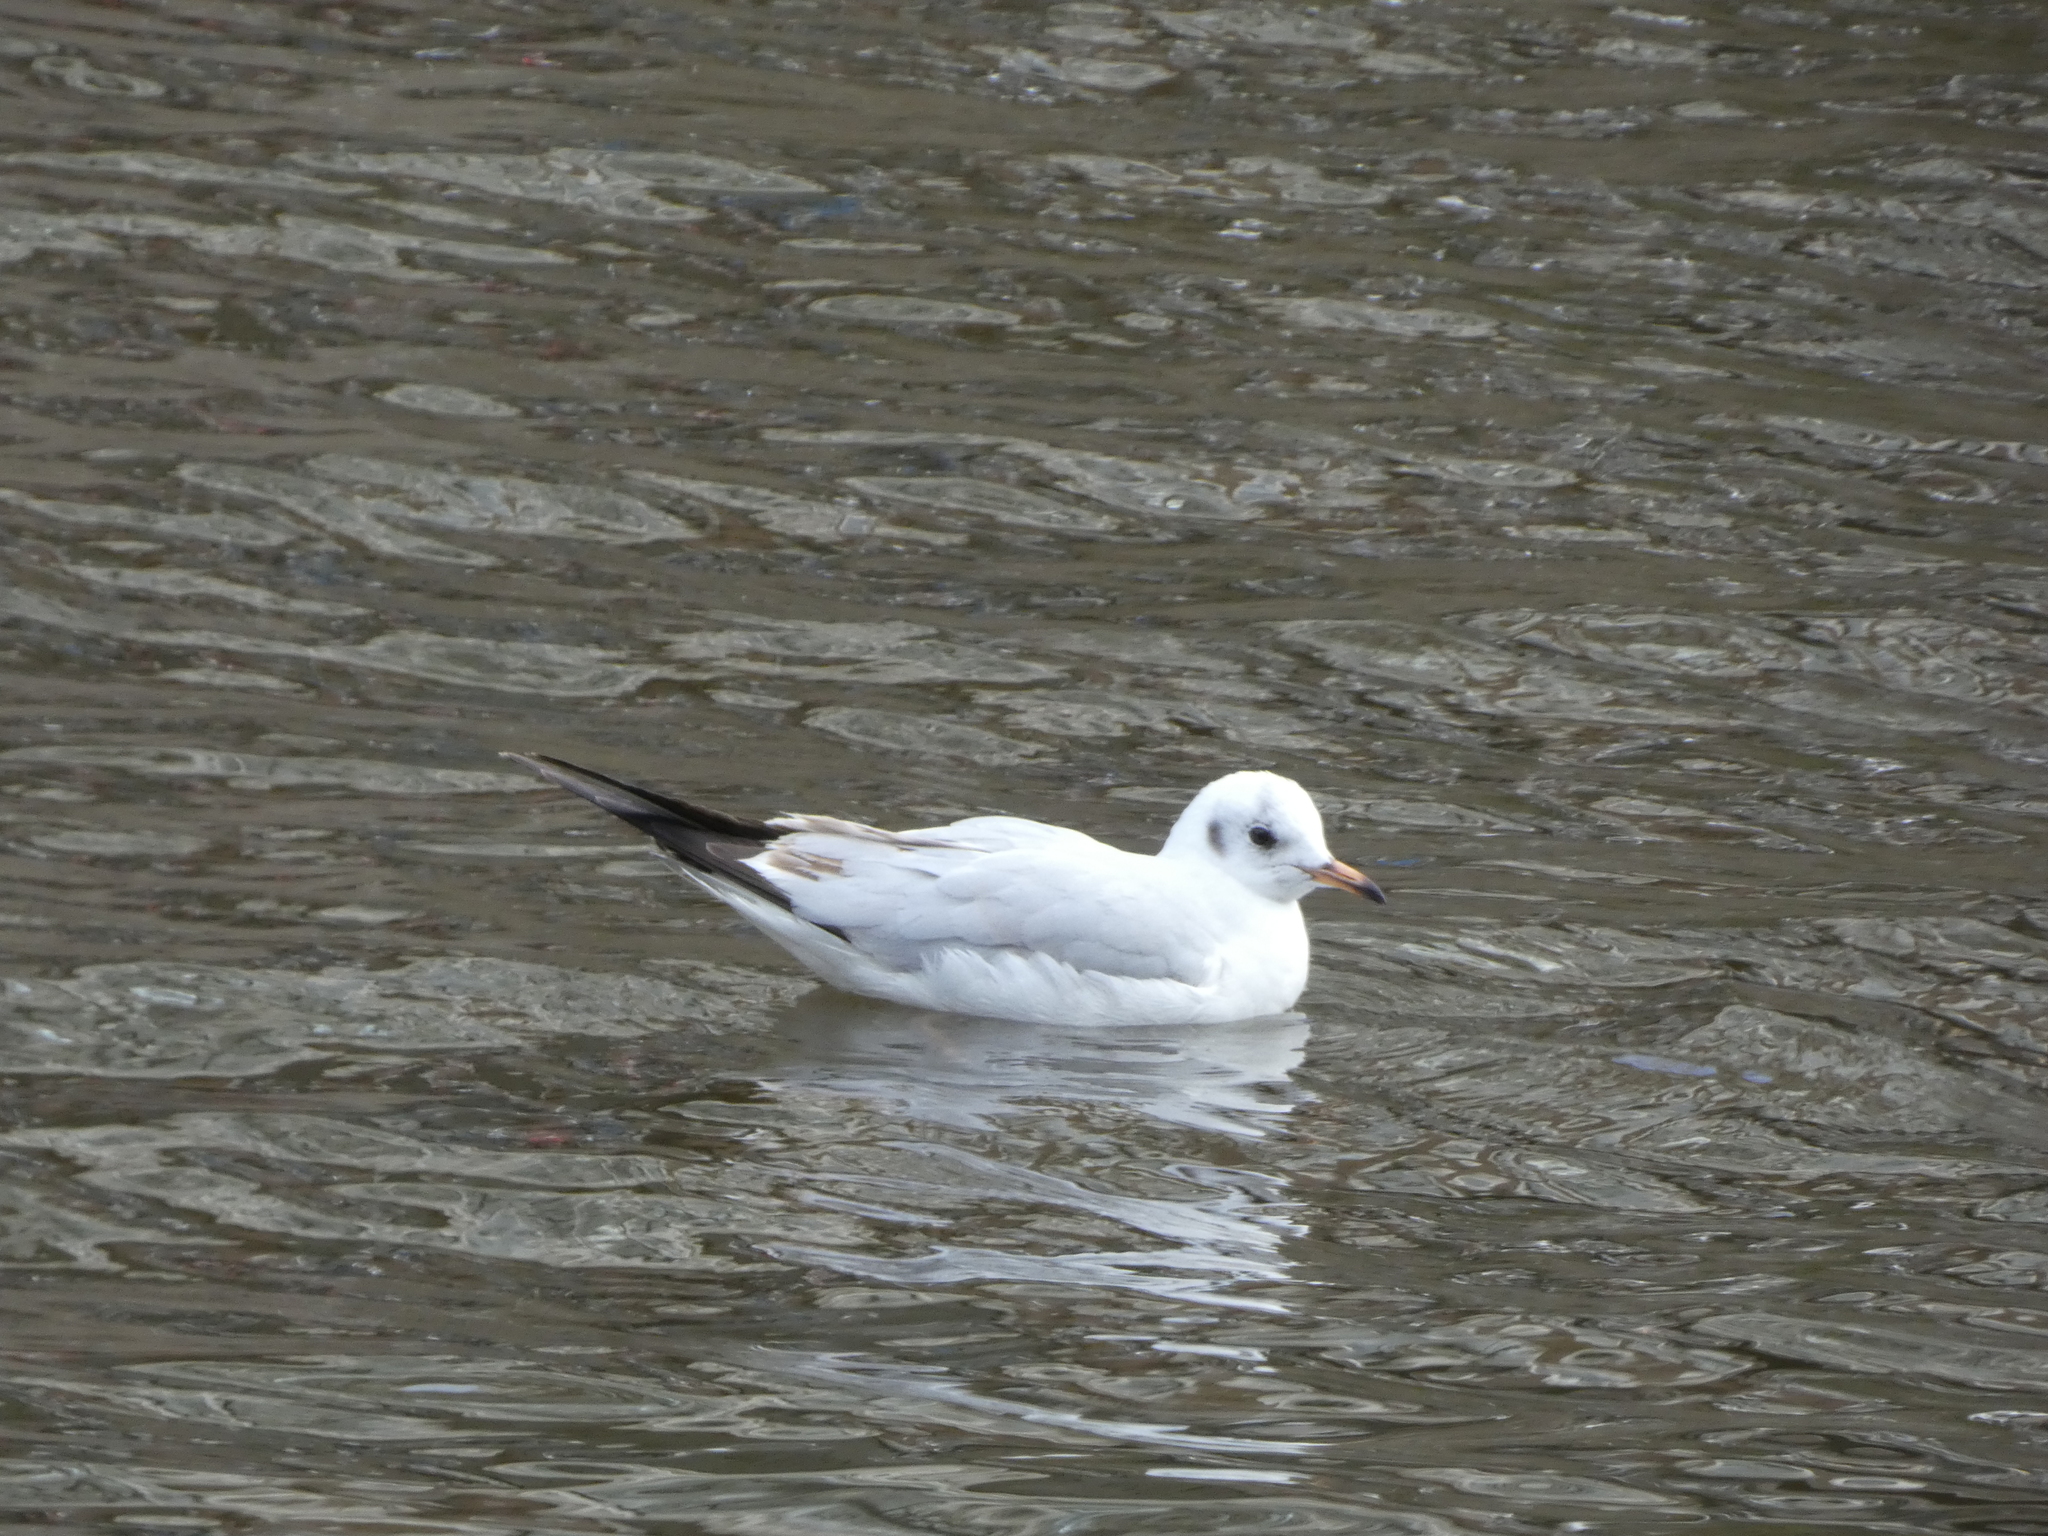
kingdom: Animalia
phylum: Chordata
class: Aves
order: Charadriiformes
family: Laridae
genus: Chroicocephalus
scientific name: Chroicocephalus ridibundus
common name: Black-headed gull
